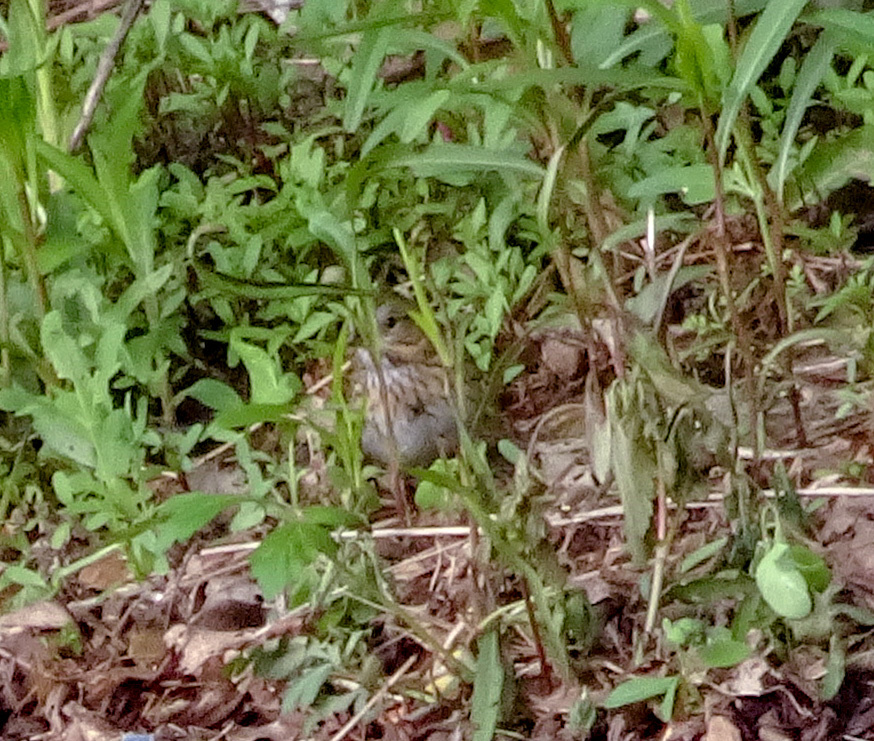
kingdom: Animalia
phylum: Chordata
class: Aves
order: Passeriformes
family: Passerellidae
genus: Melospiza
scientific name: Melospiza lincolnii
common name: Lincoln's sparrow
